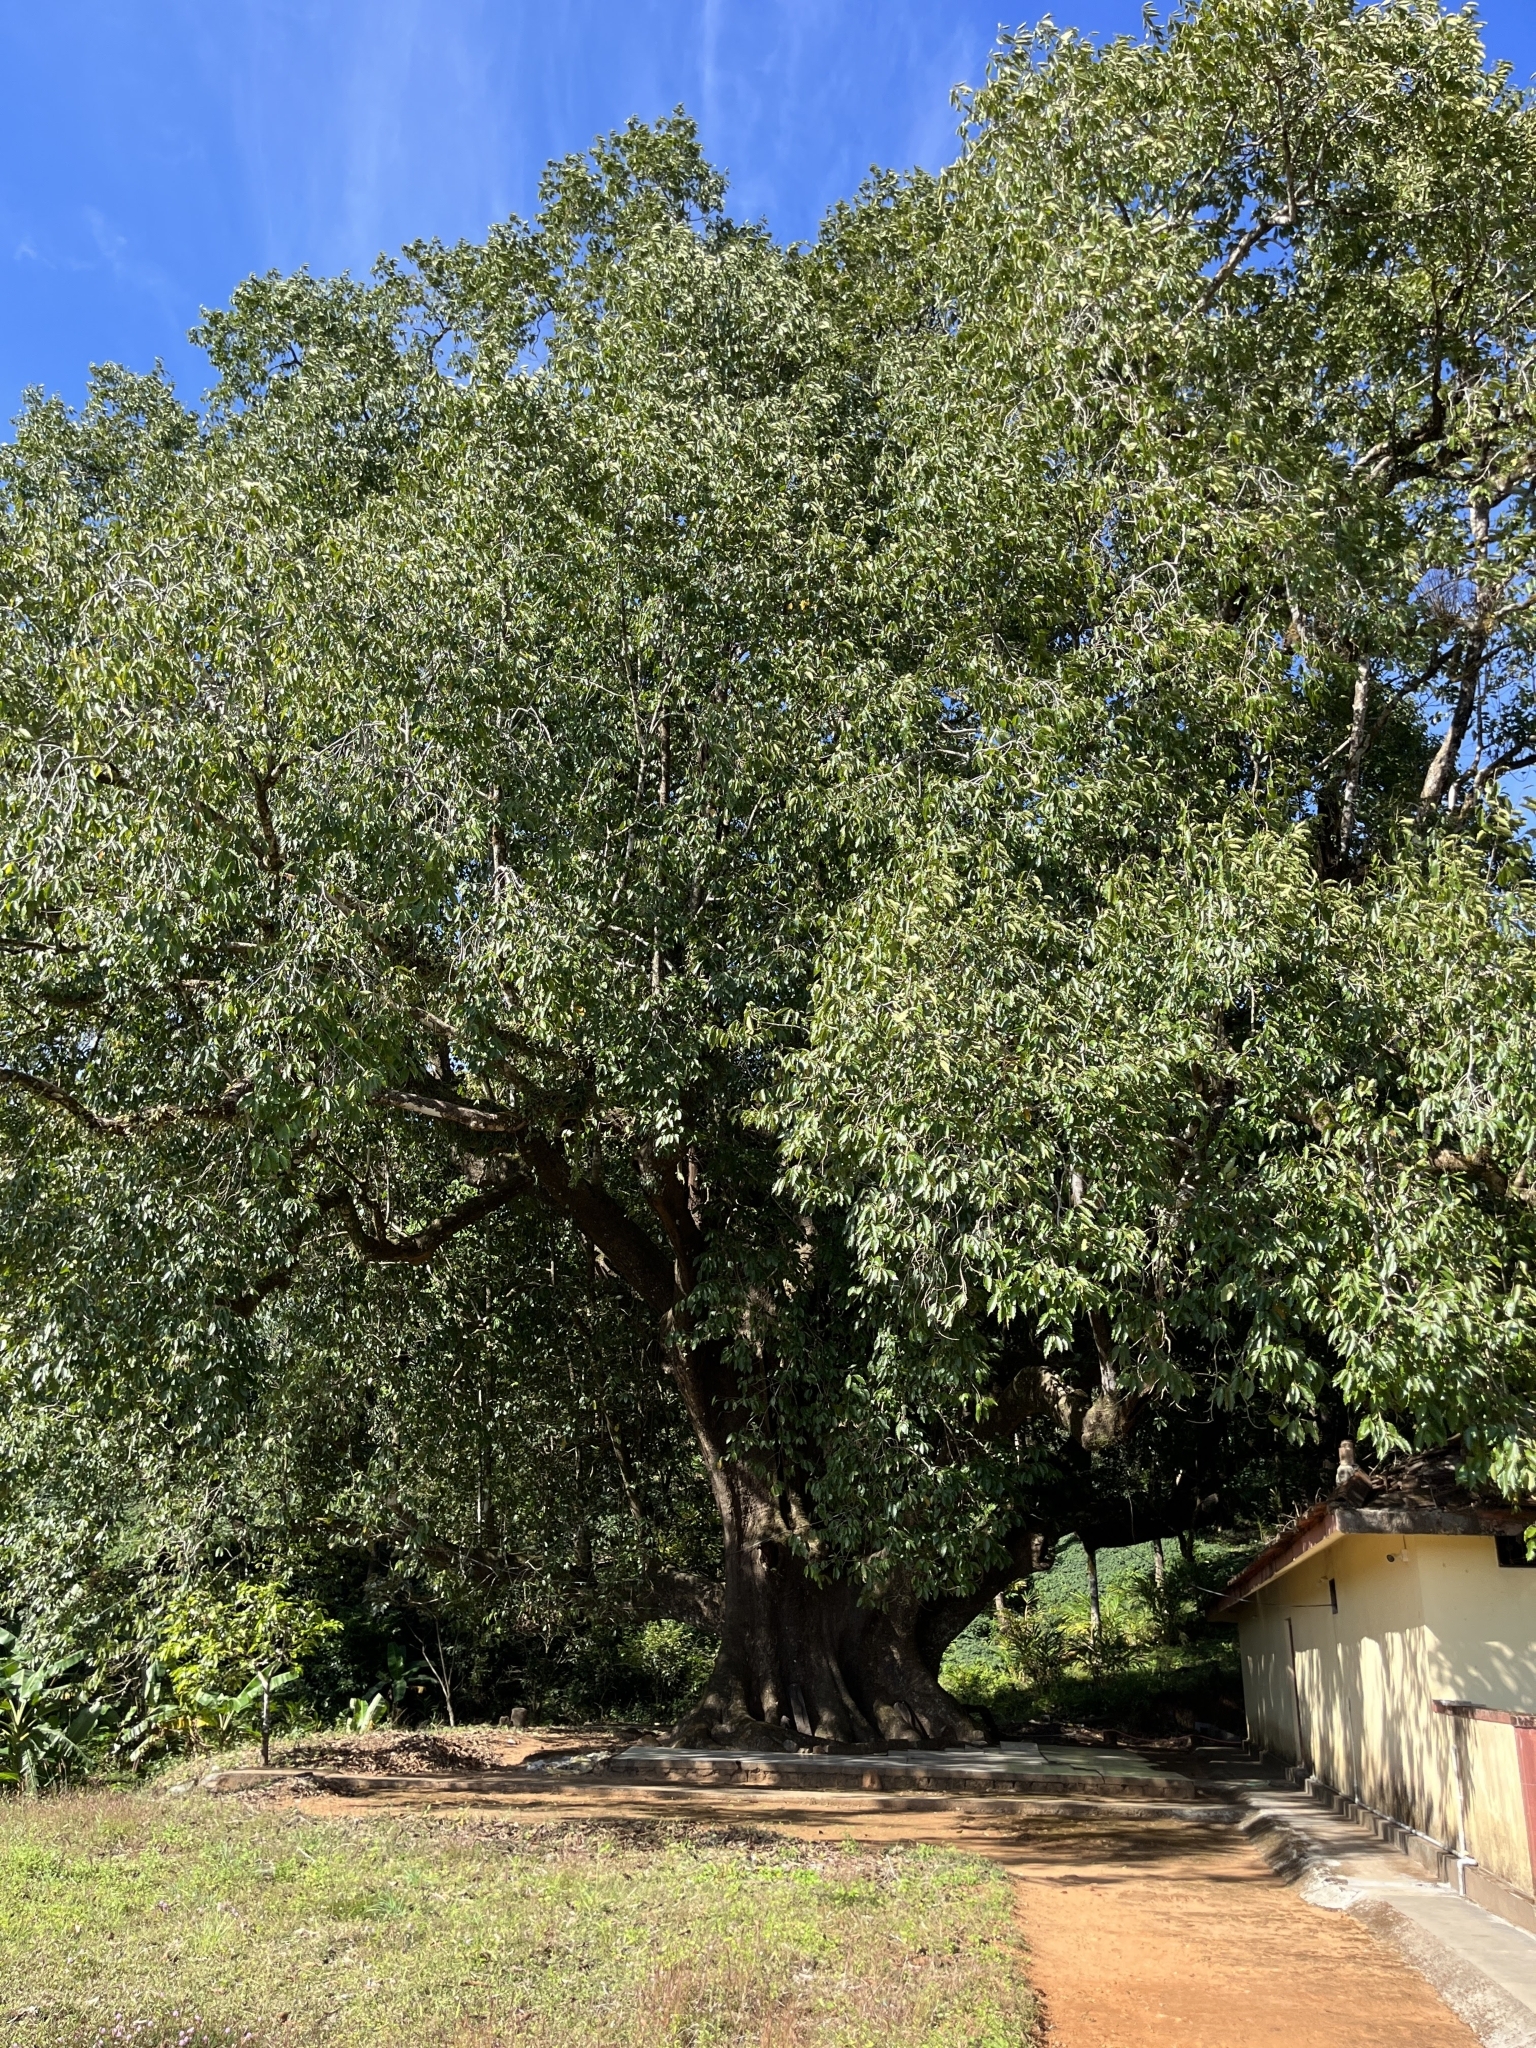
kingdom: Plantae
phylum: Tracheophyta
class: Magnoliopsida
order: Magnoliales
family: Magnoliaceae
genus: Magnolia
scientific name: Magnolia champaca
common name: Champak
